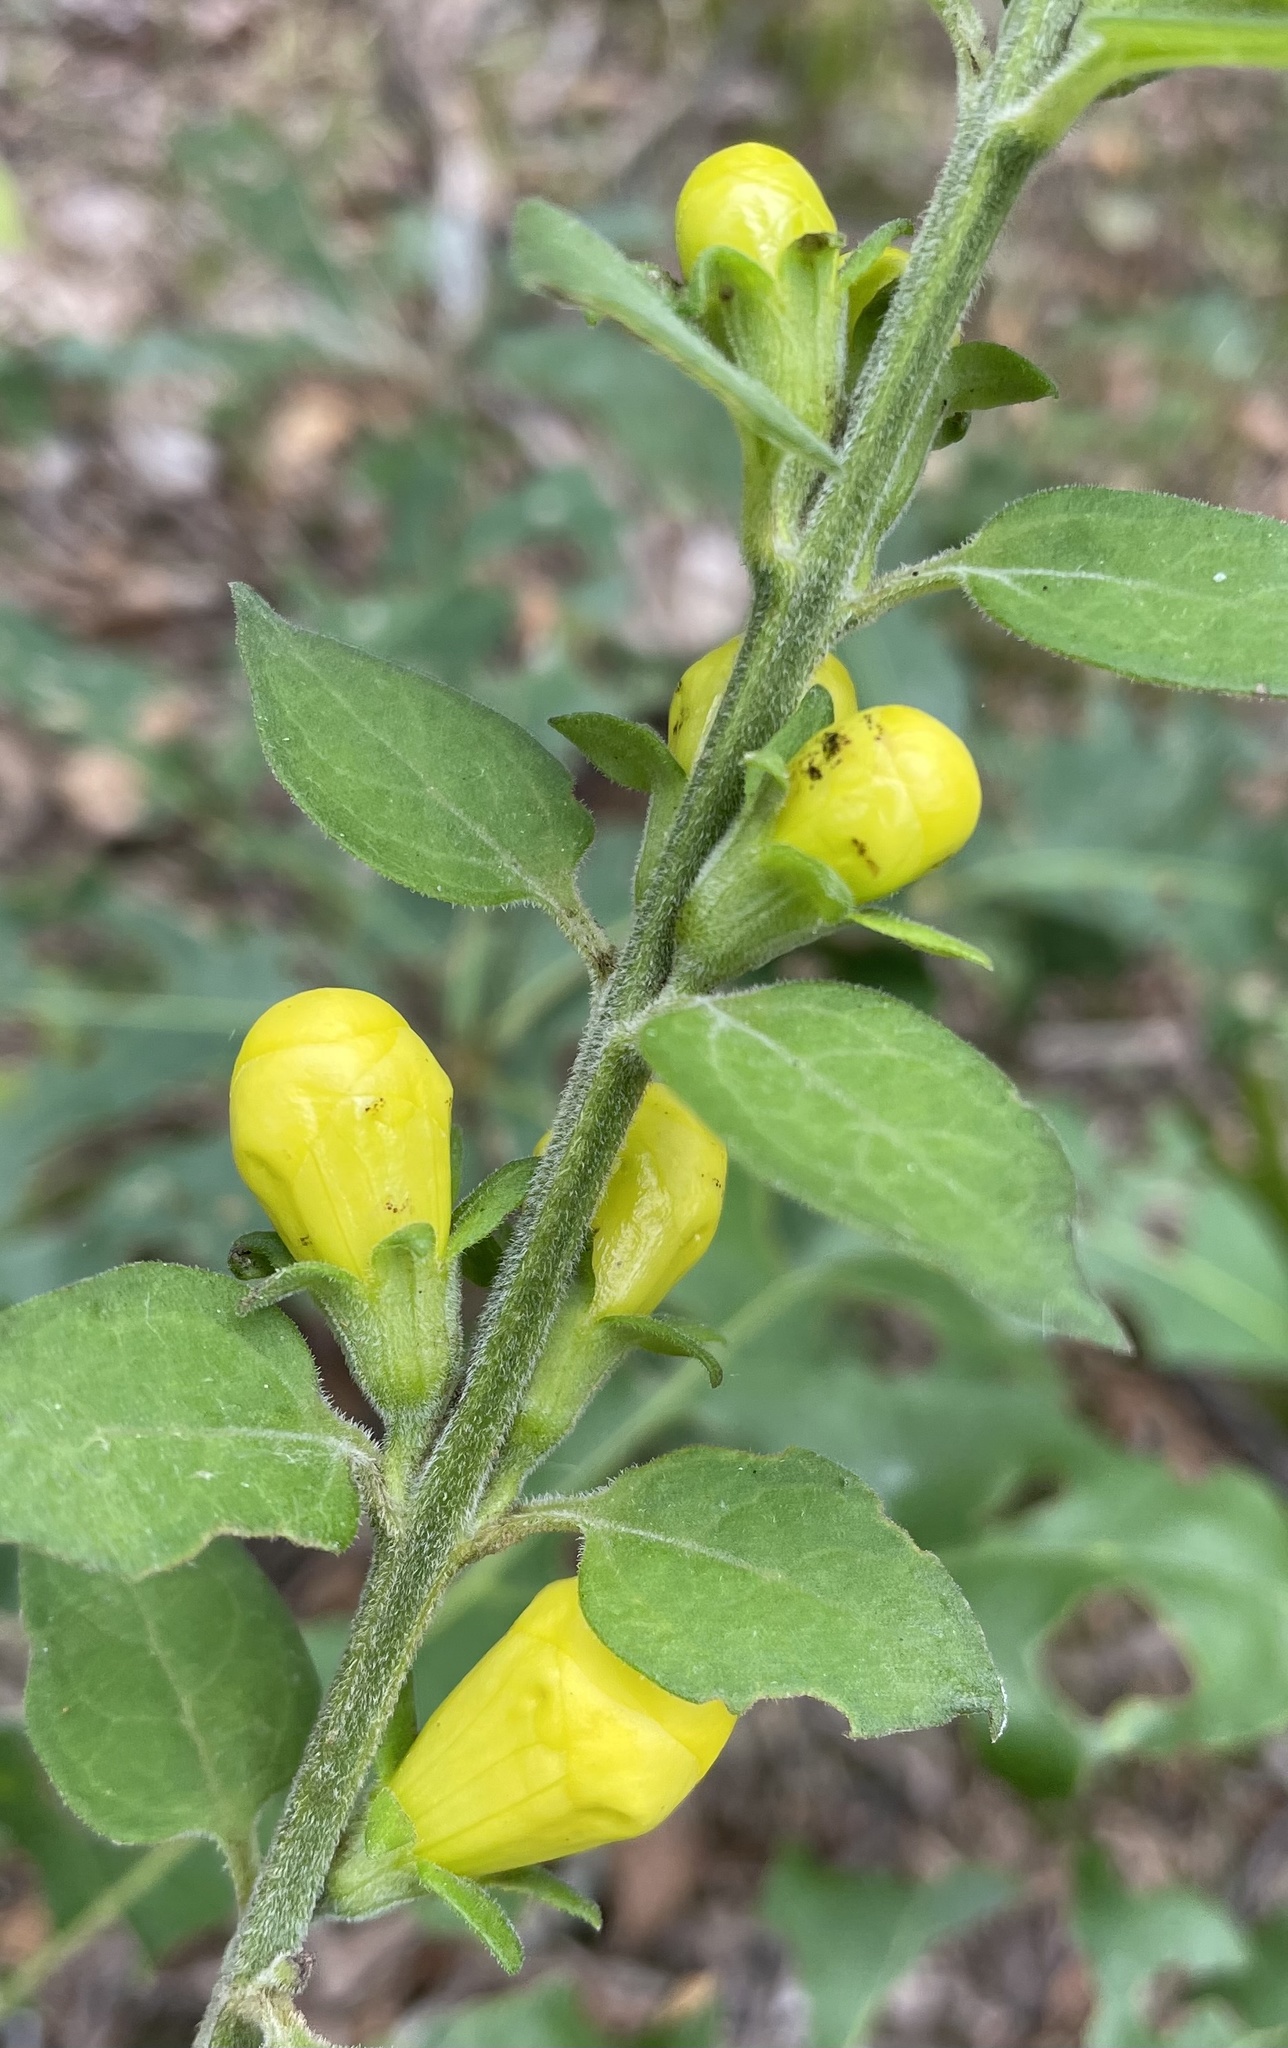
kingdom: Plantae
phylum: Tracheophyta
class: Magnoliopsida
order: Lamiales
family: Orobanchaceae
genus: Aureolaria
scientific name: Aureolaria virginica
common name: Downy false foxglove
